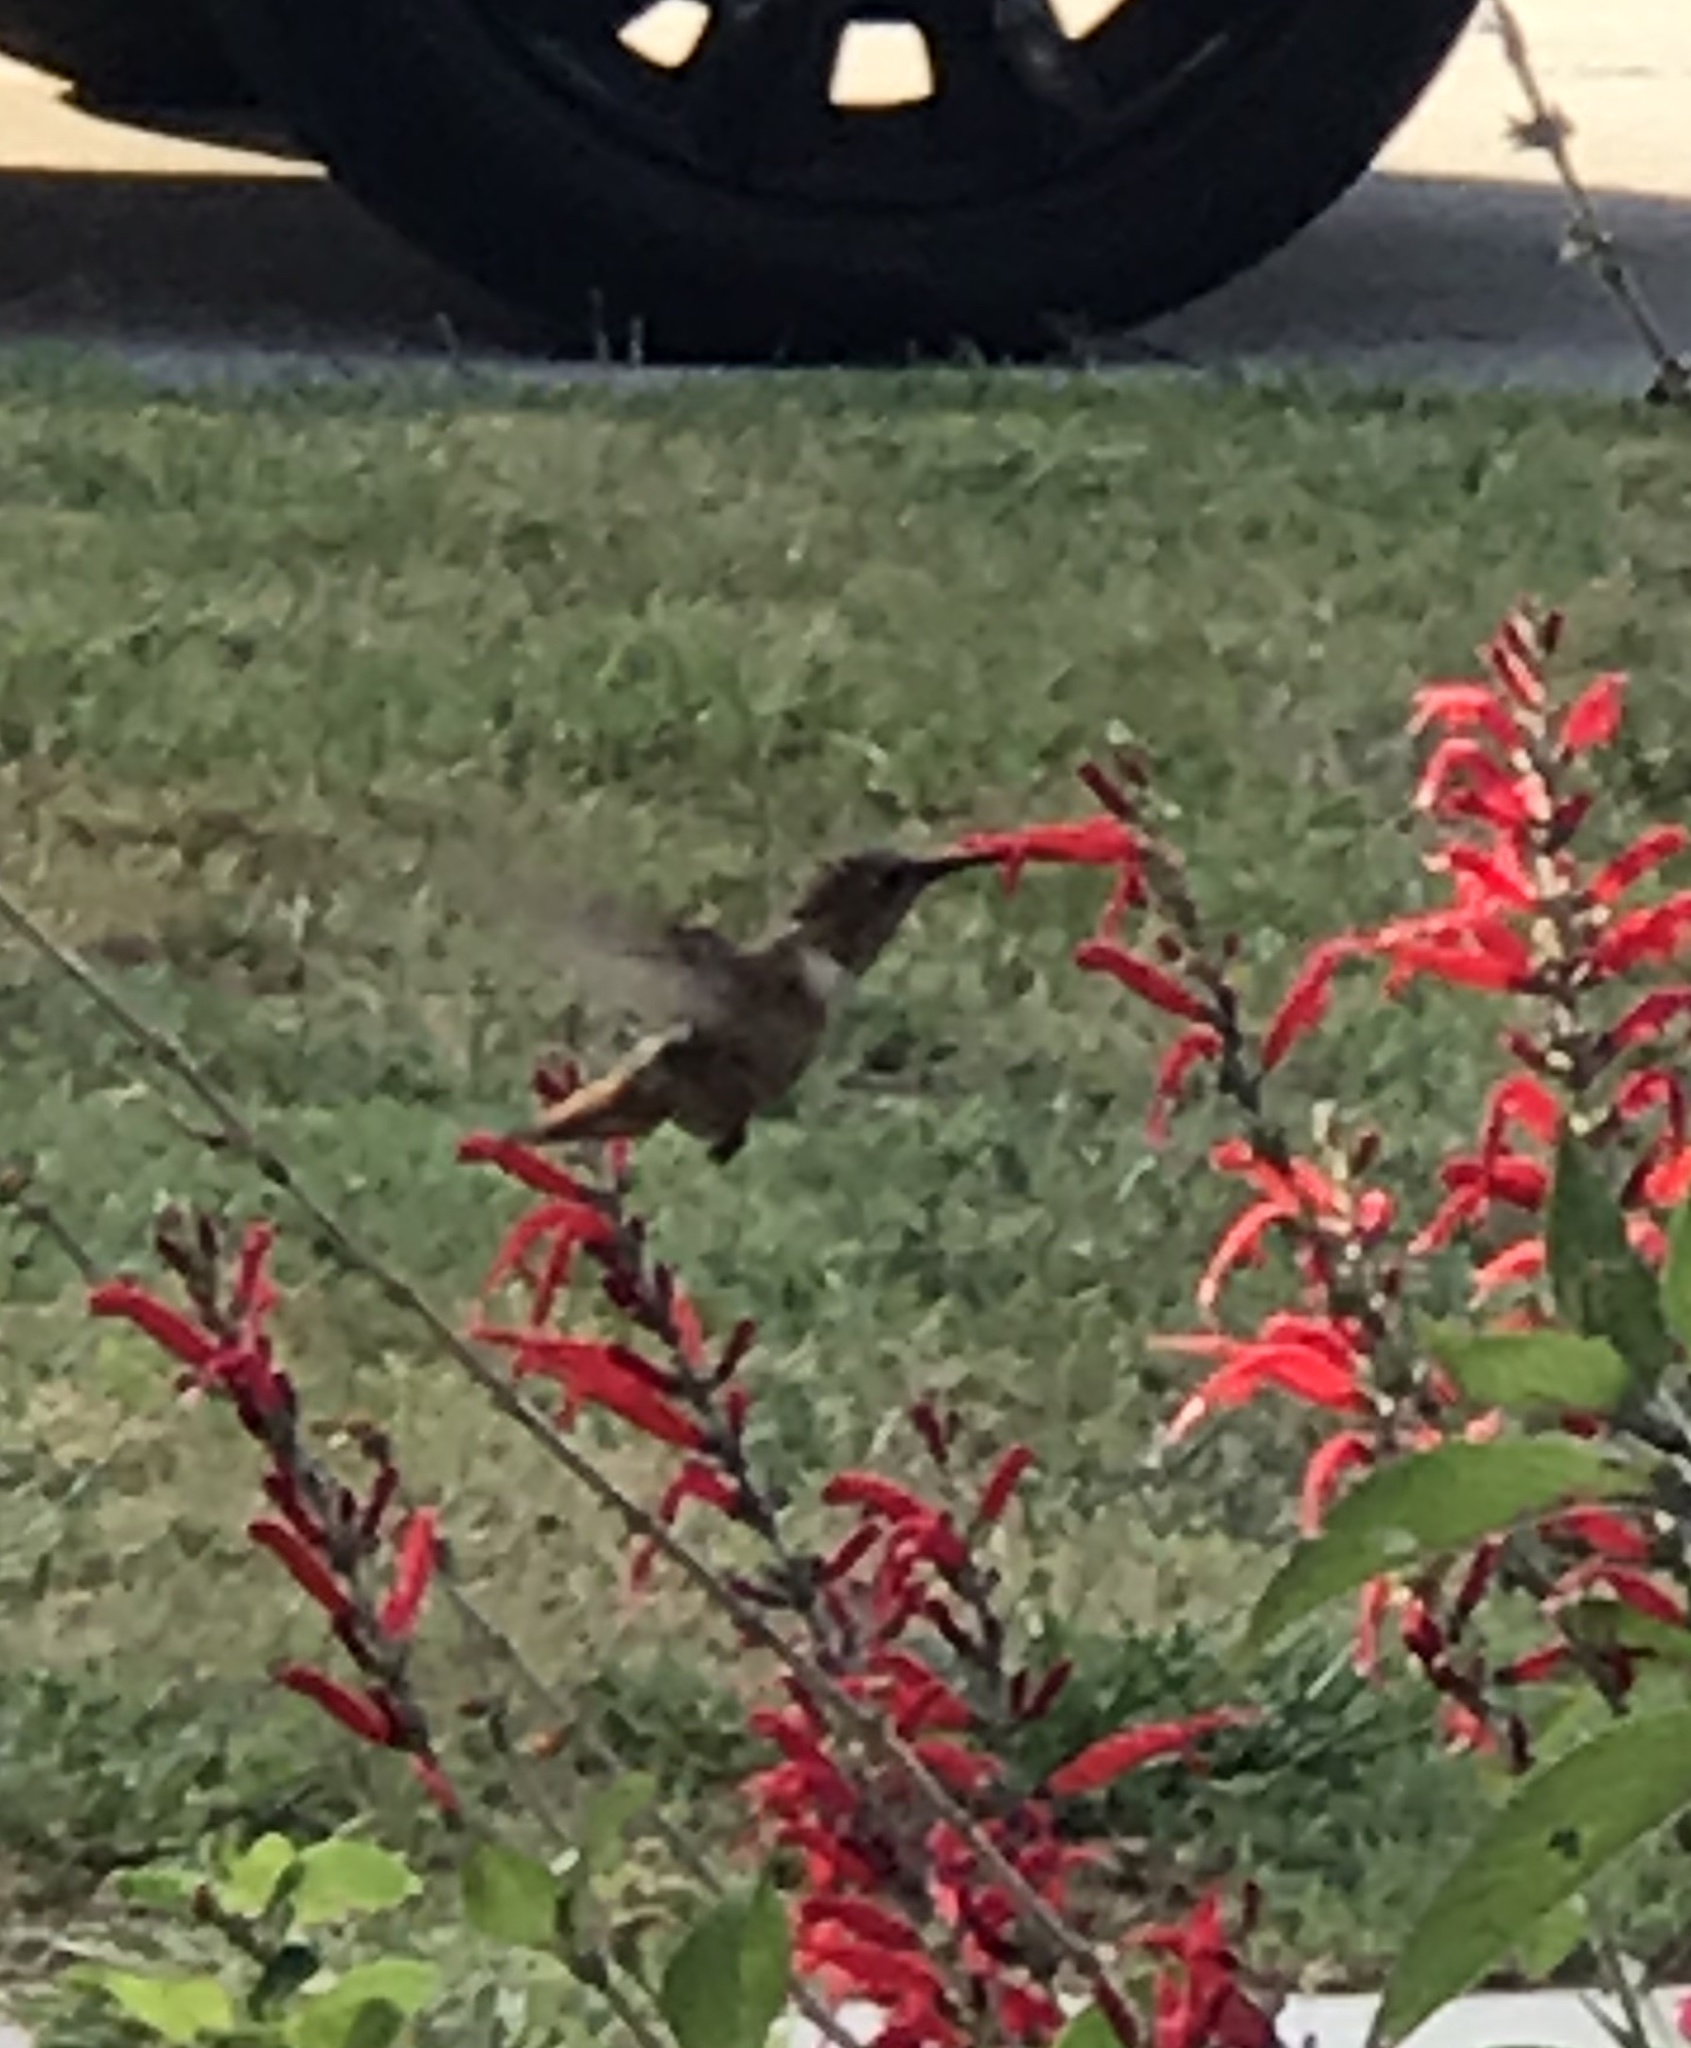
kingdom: Animalia
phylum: Chordata
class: Aves
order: Apodiformes
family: Trochilidae
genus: Selasphorus
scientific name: Selasphorus
